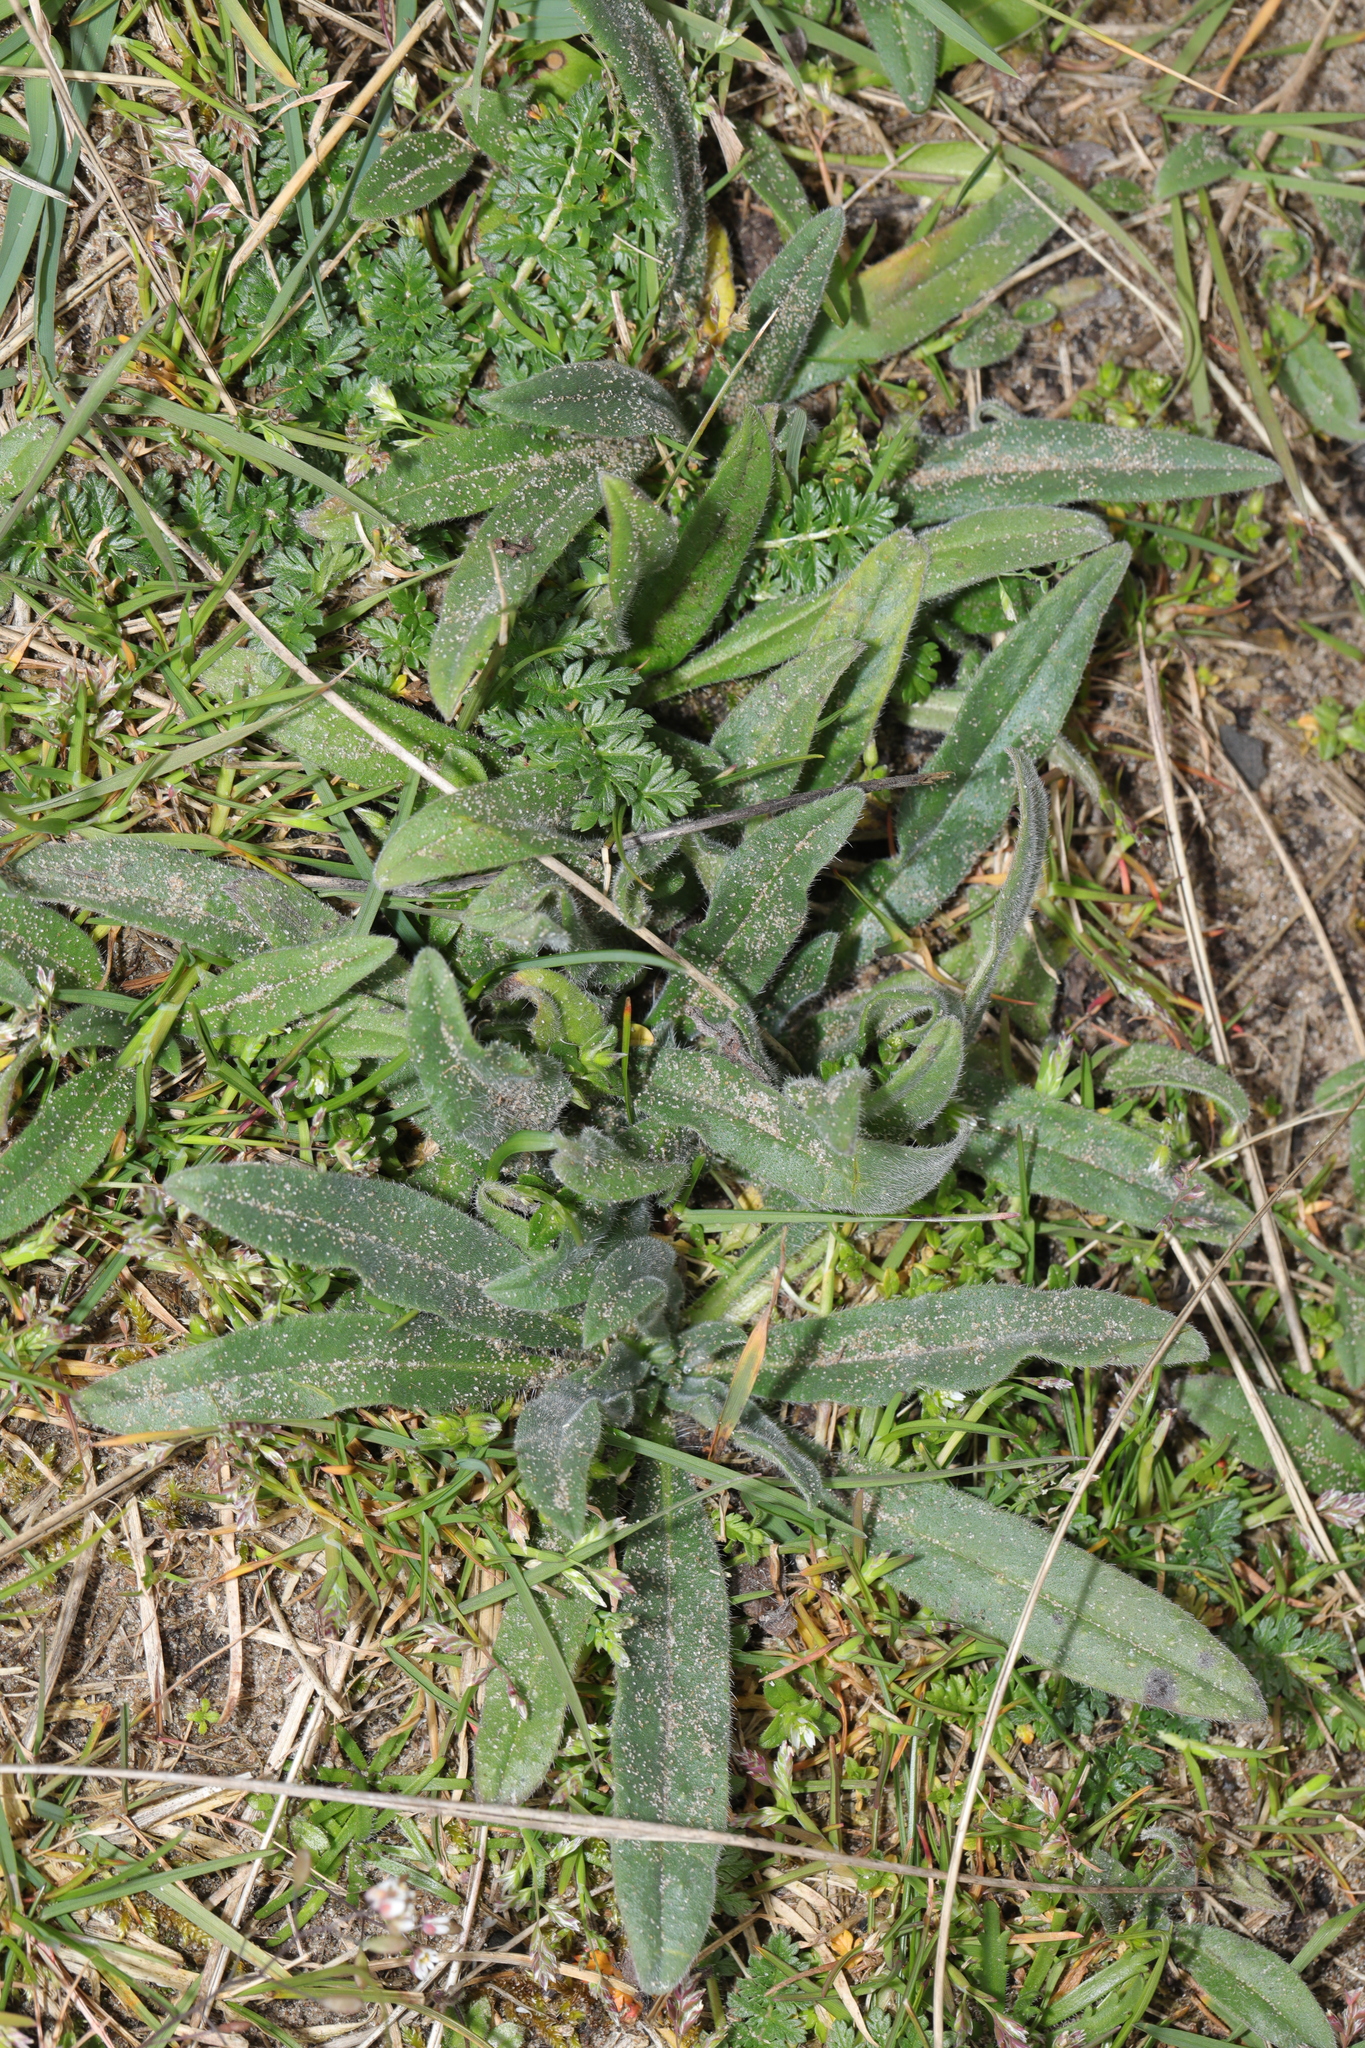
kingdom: Plantae
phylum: Tracheophyta
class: Magnoliopsida
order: Boraginales
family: Boraginaceae
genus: Echium
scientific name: Echium vulgare
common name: Common viper's bugloss
